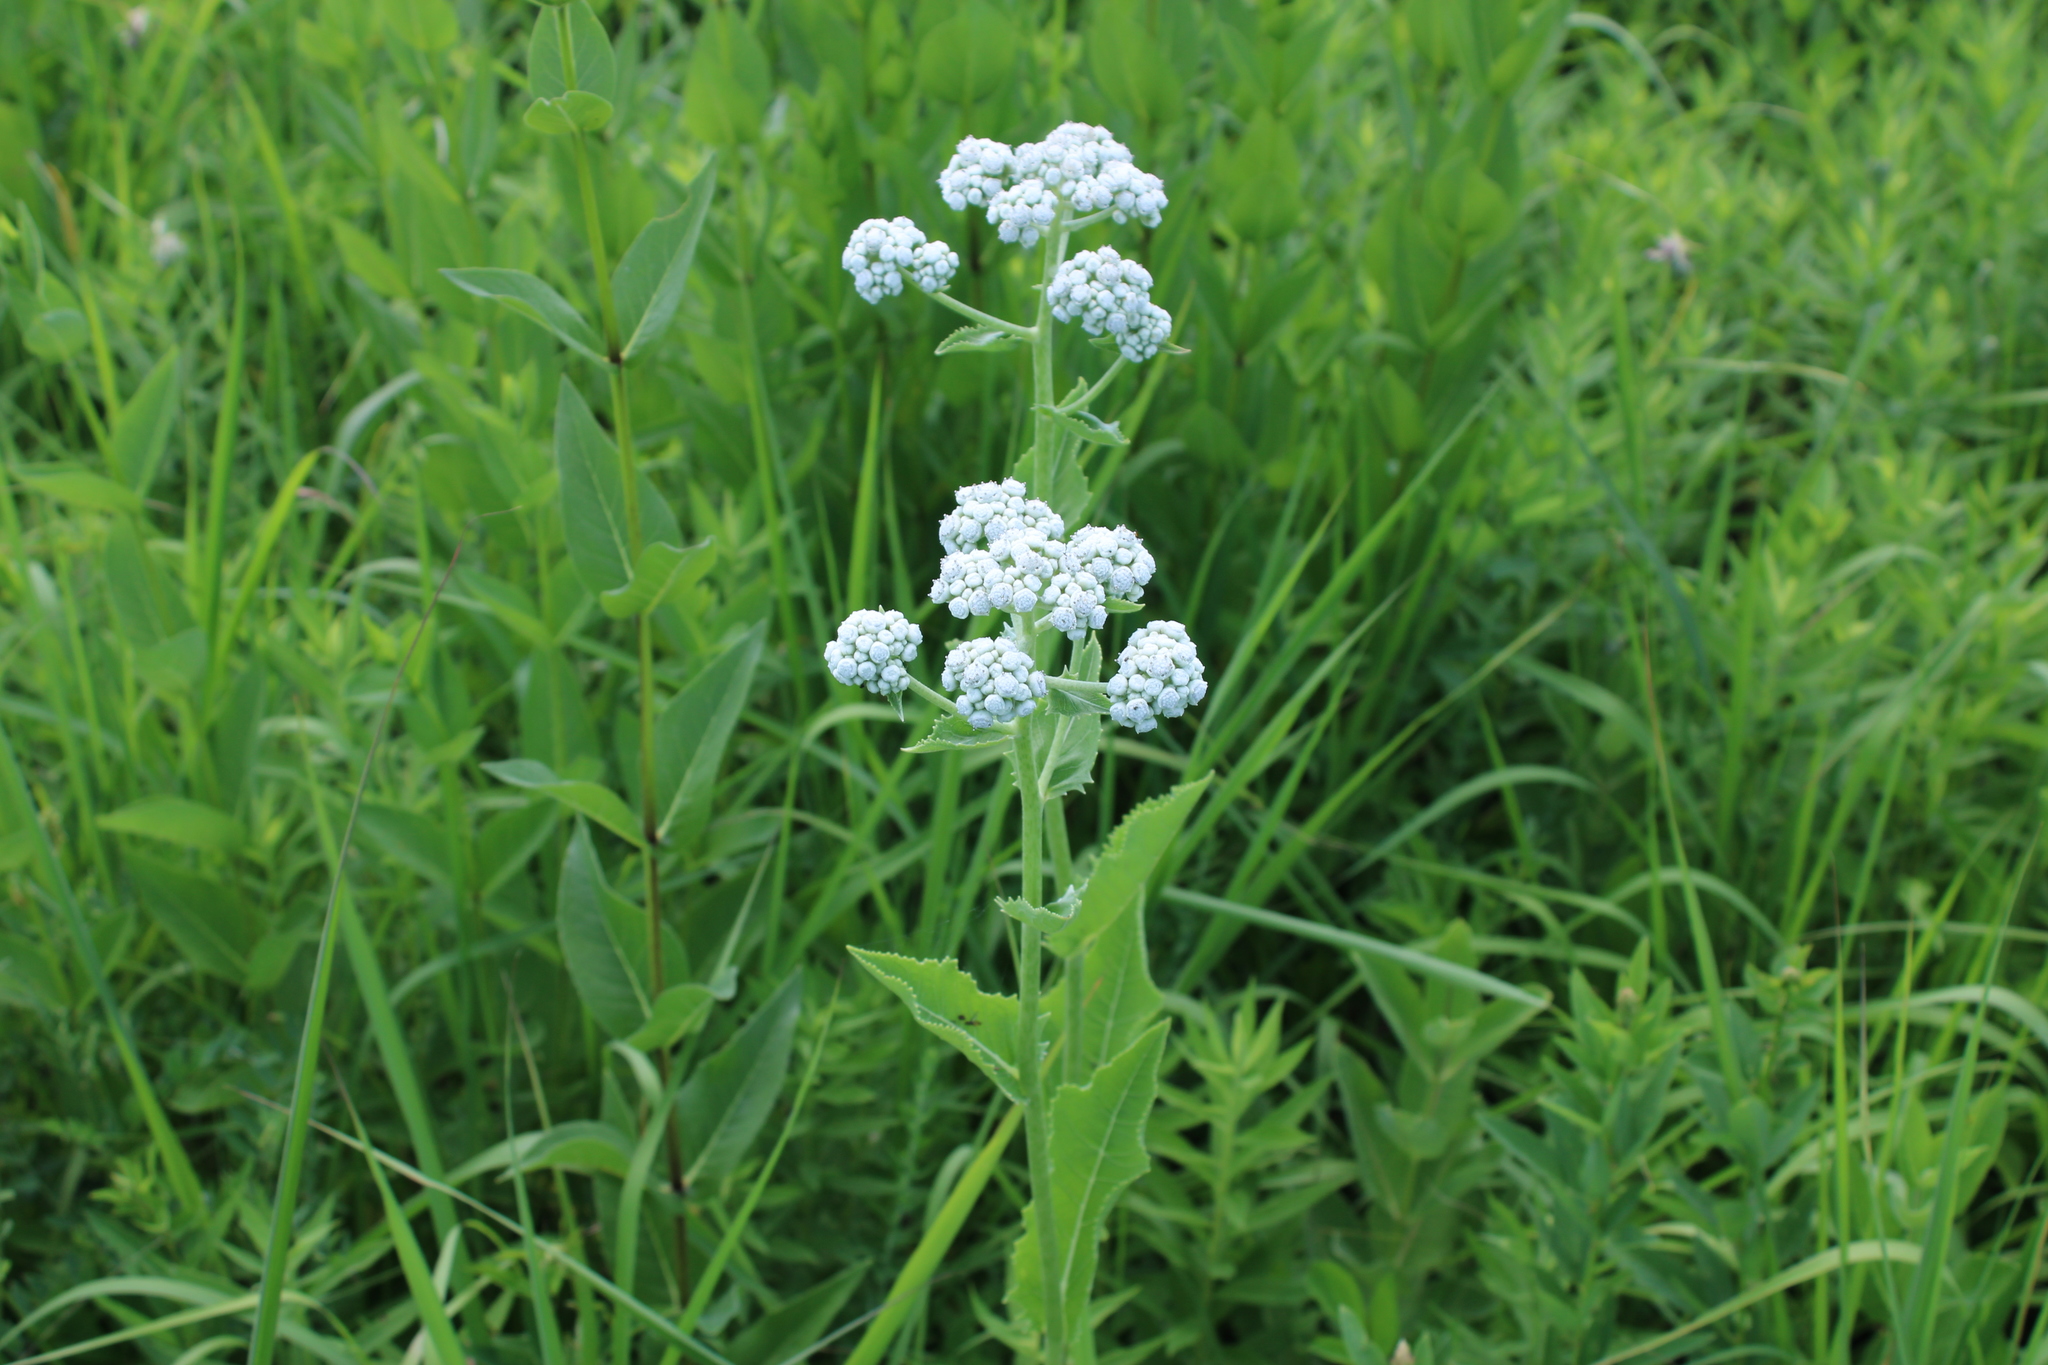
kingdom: Plantae
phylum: Tracheophyta
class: Magnoliopsida
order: Asterales
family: Asteraceae
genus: Parthenium
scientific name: Parthenium integrifolium
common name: American feverfew
